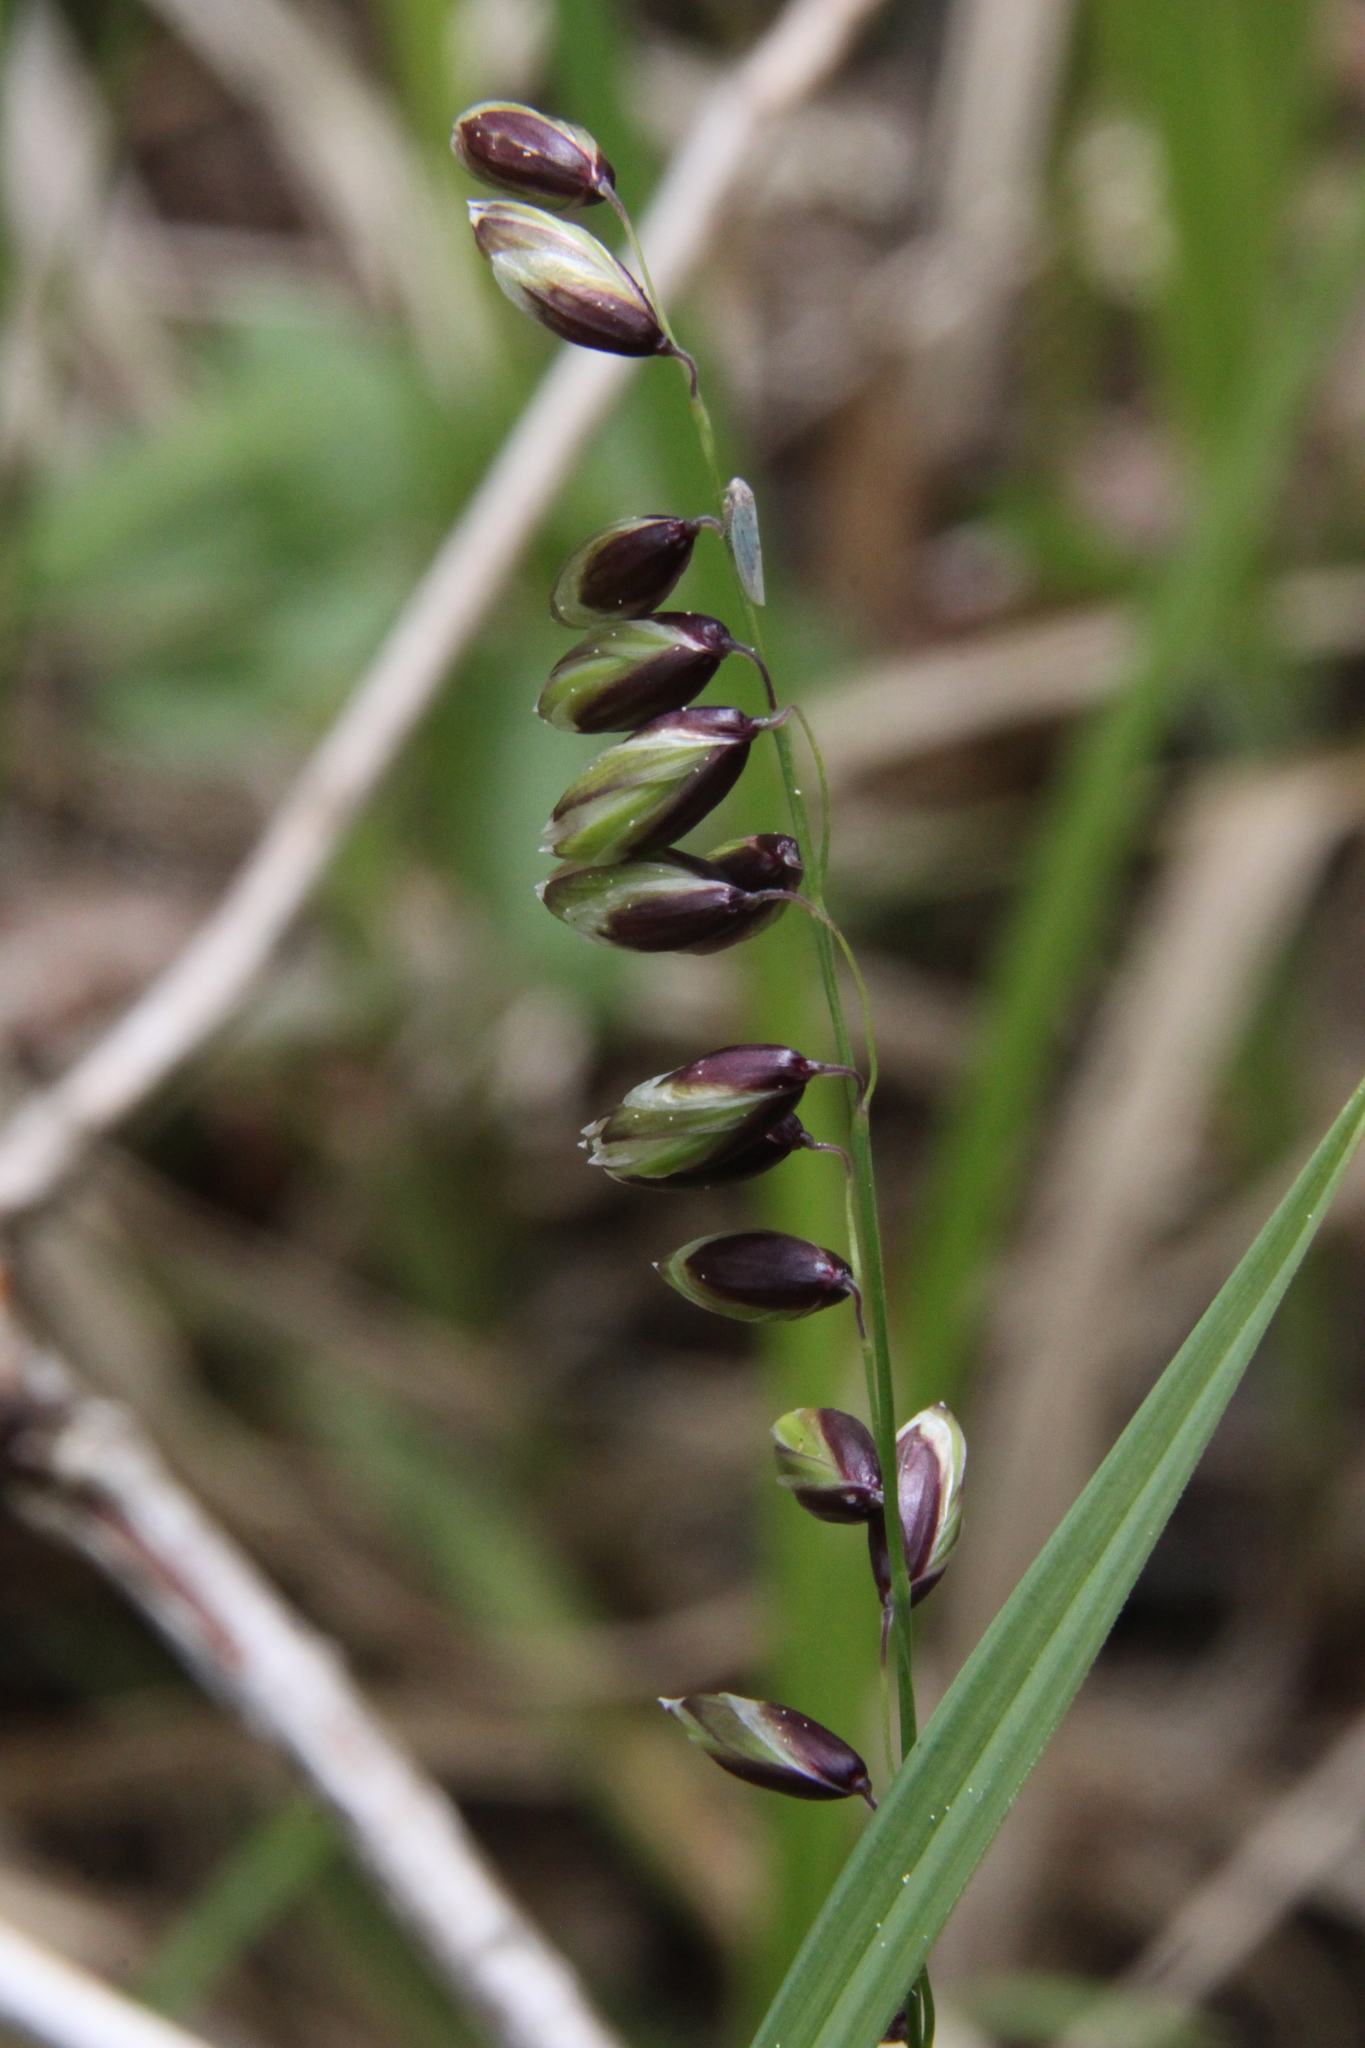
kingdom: Plantae
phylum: Tracheophyta
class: Liliopsida
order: Poales
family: Poaceae
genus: Melica
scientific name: Melica nutans
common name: Mountain melick
